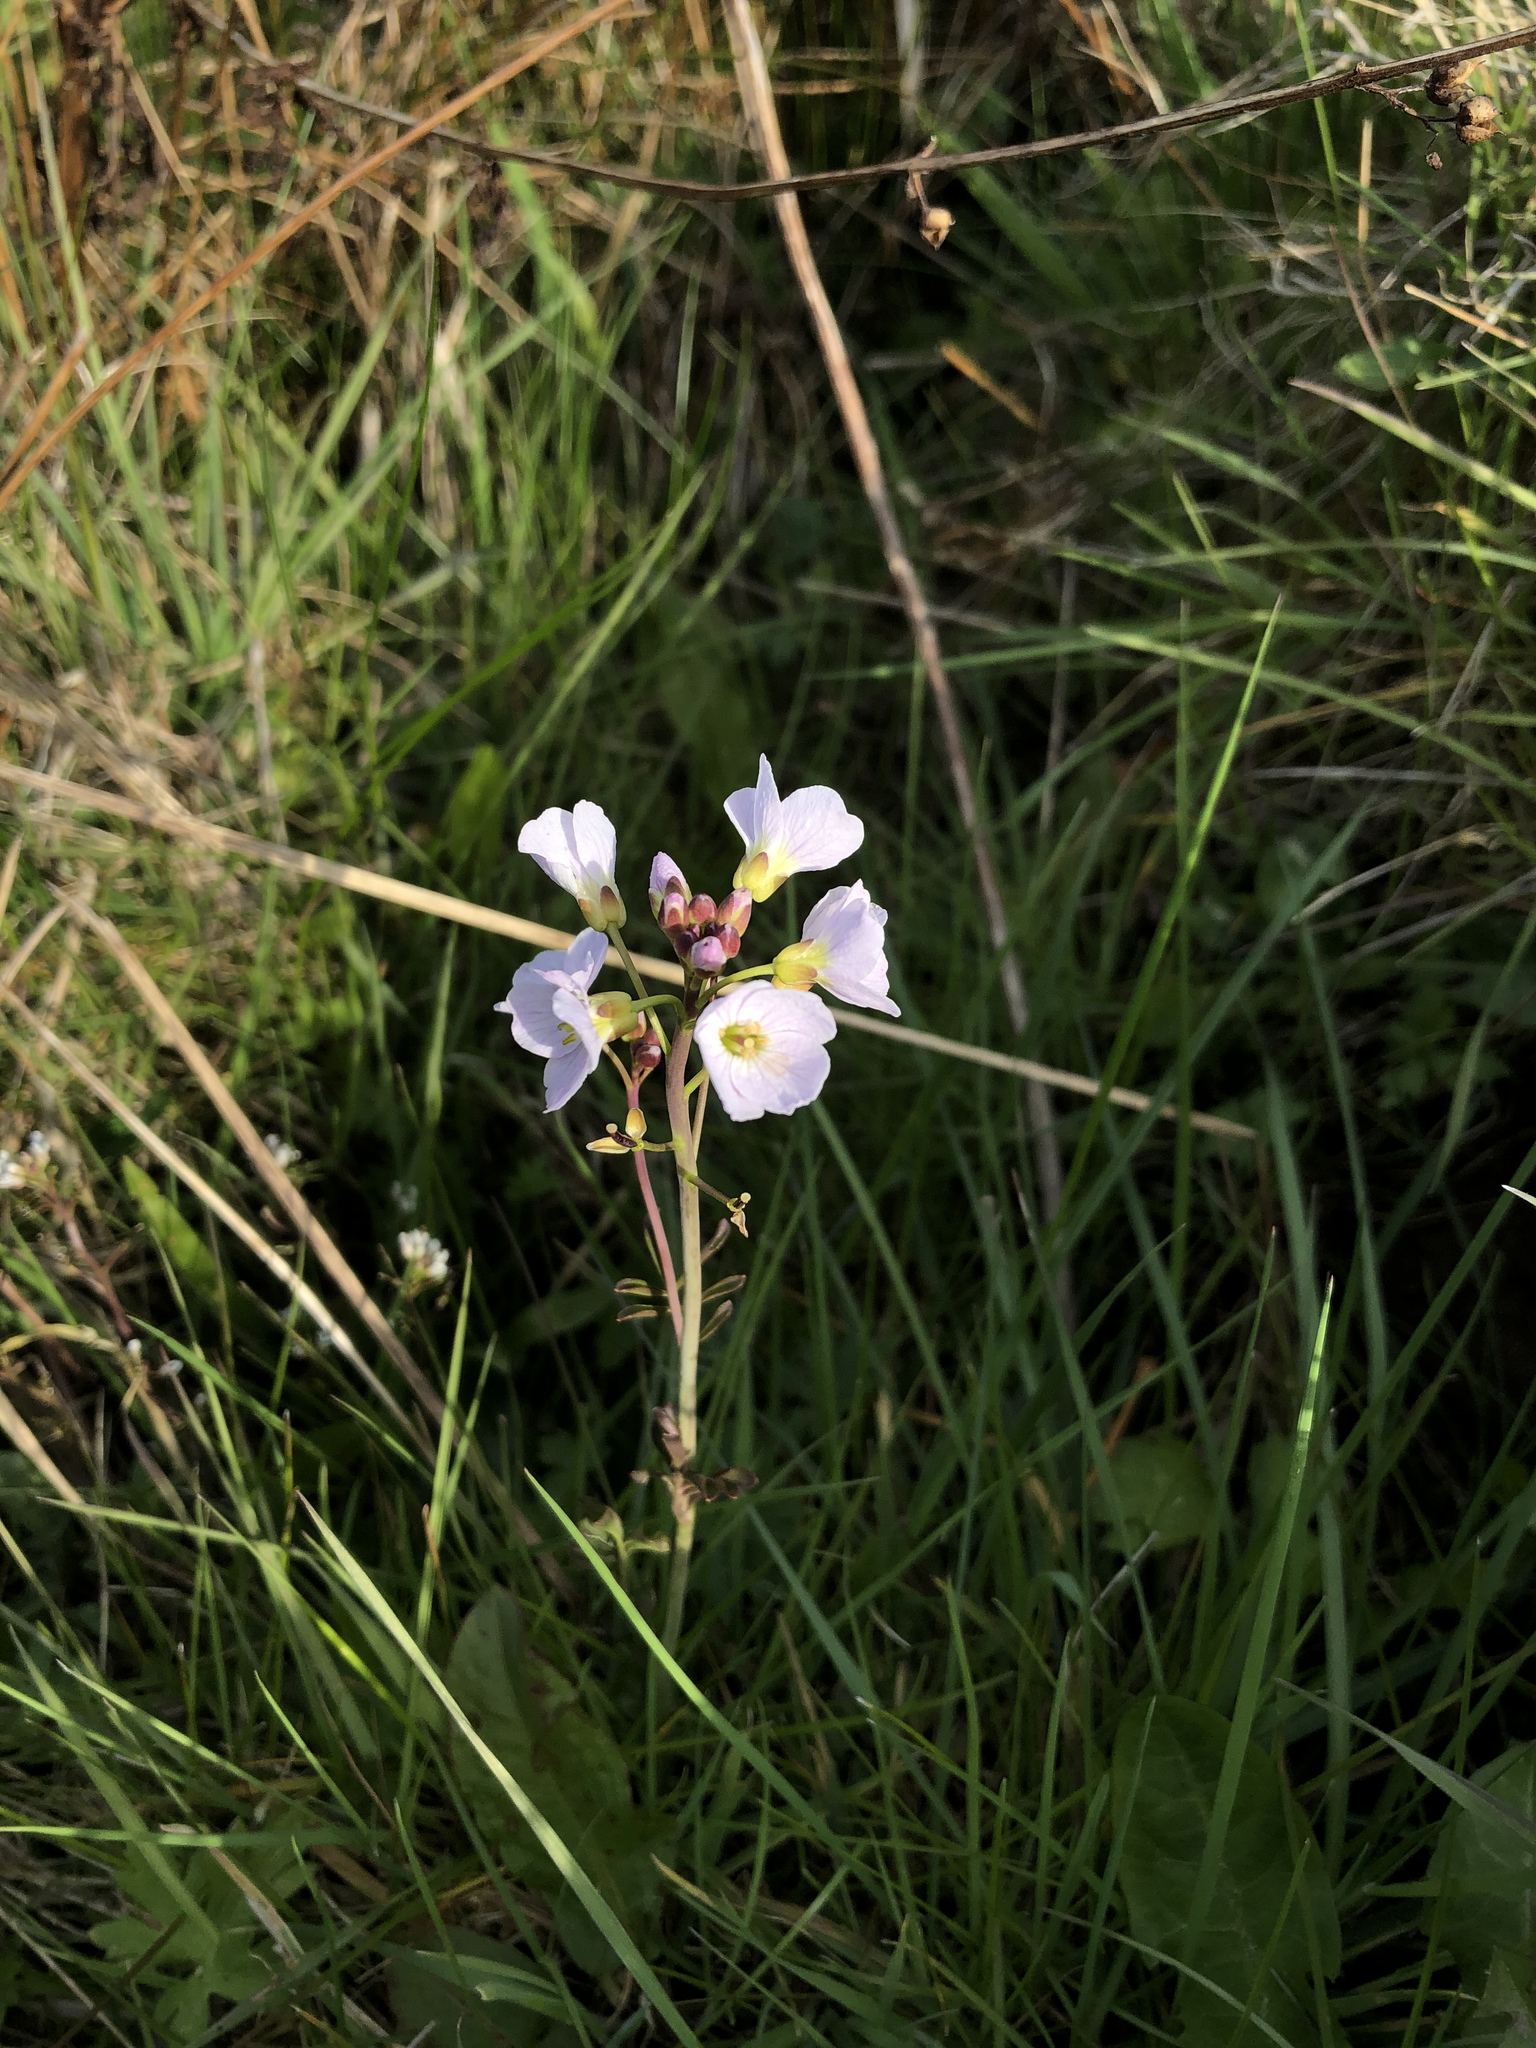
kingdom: Plantae
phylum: Tracheophyta
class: Magnoliopsida
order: Brassicales
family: Brassicaceae
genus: Cardamine
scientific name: Cardamine pratensis
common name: Cuckoo flower
